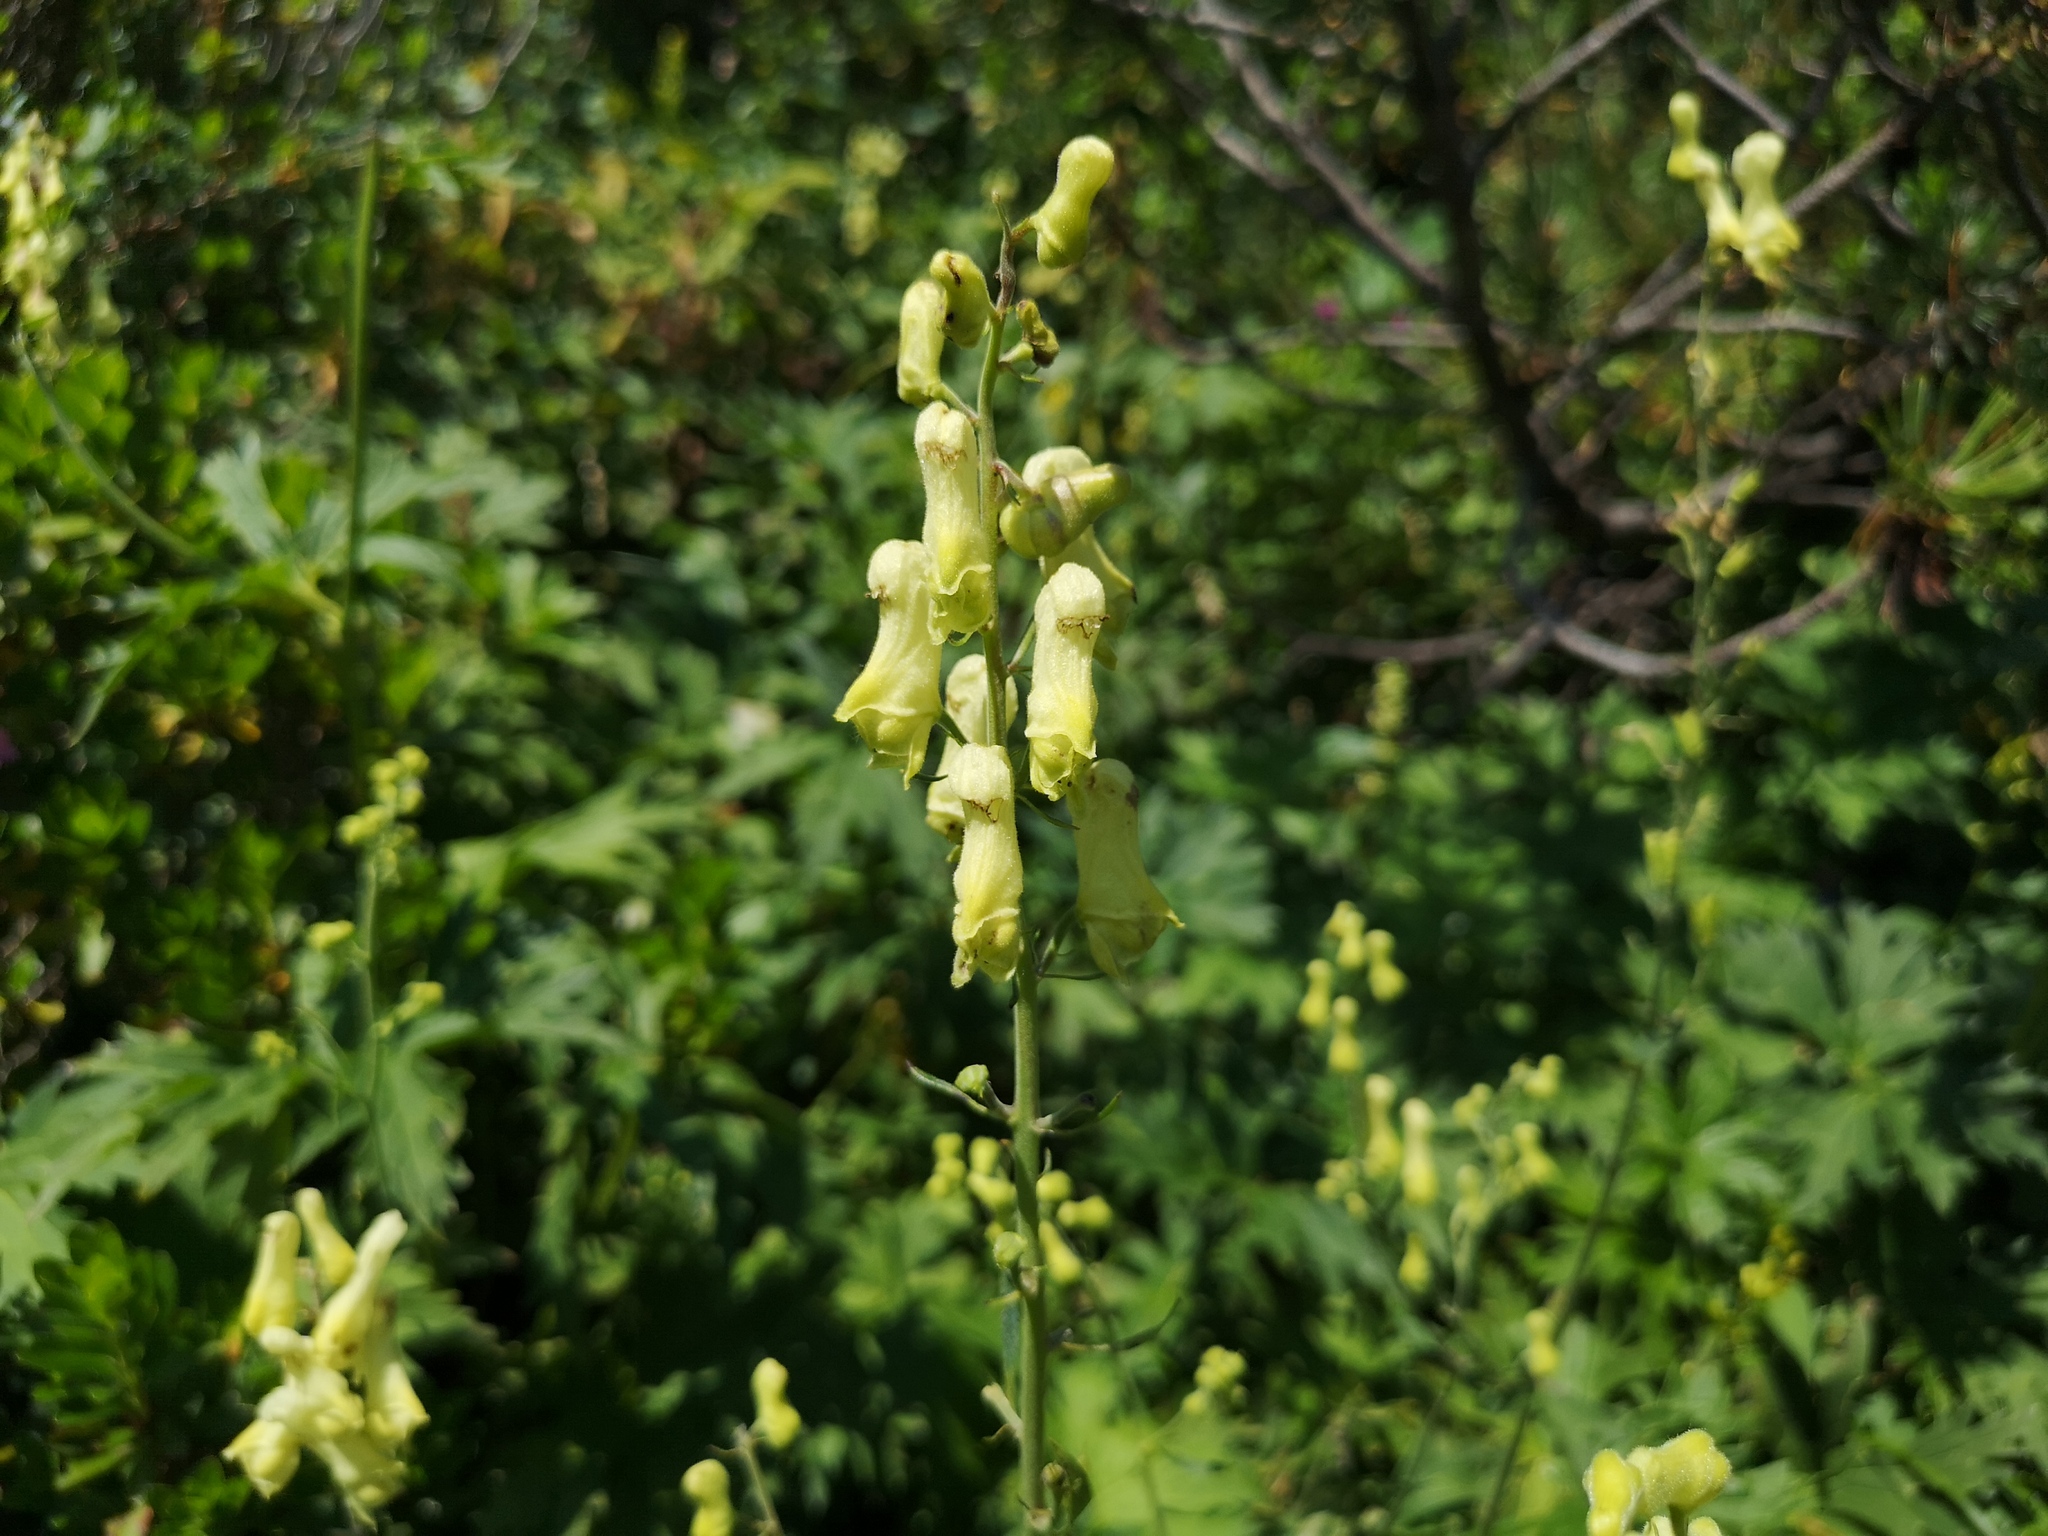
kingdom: Plantae
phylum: Tracheophyta
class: Magnoliopsida
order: Ranunculales
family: Ranunculaceae
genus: Aconitum
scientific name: Aconitum lycoctonum
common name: Wolf's-bane
